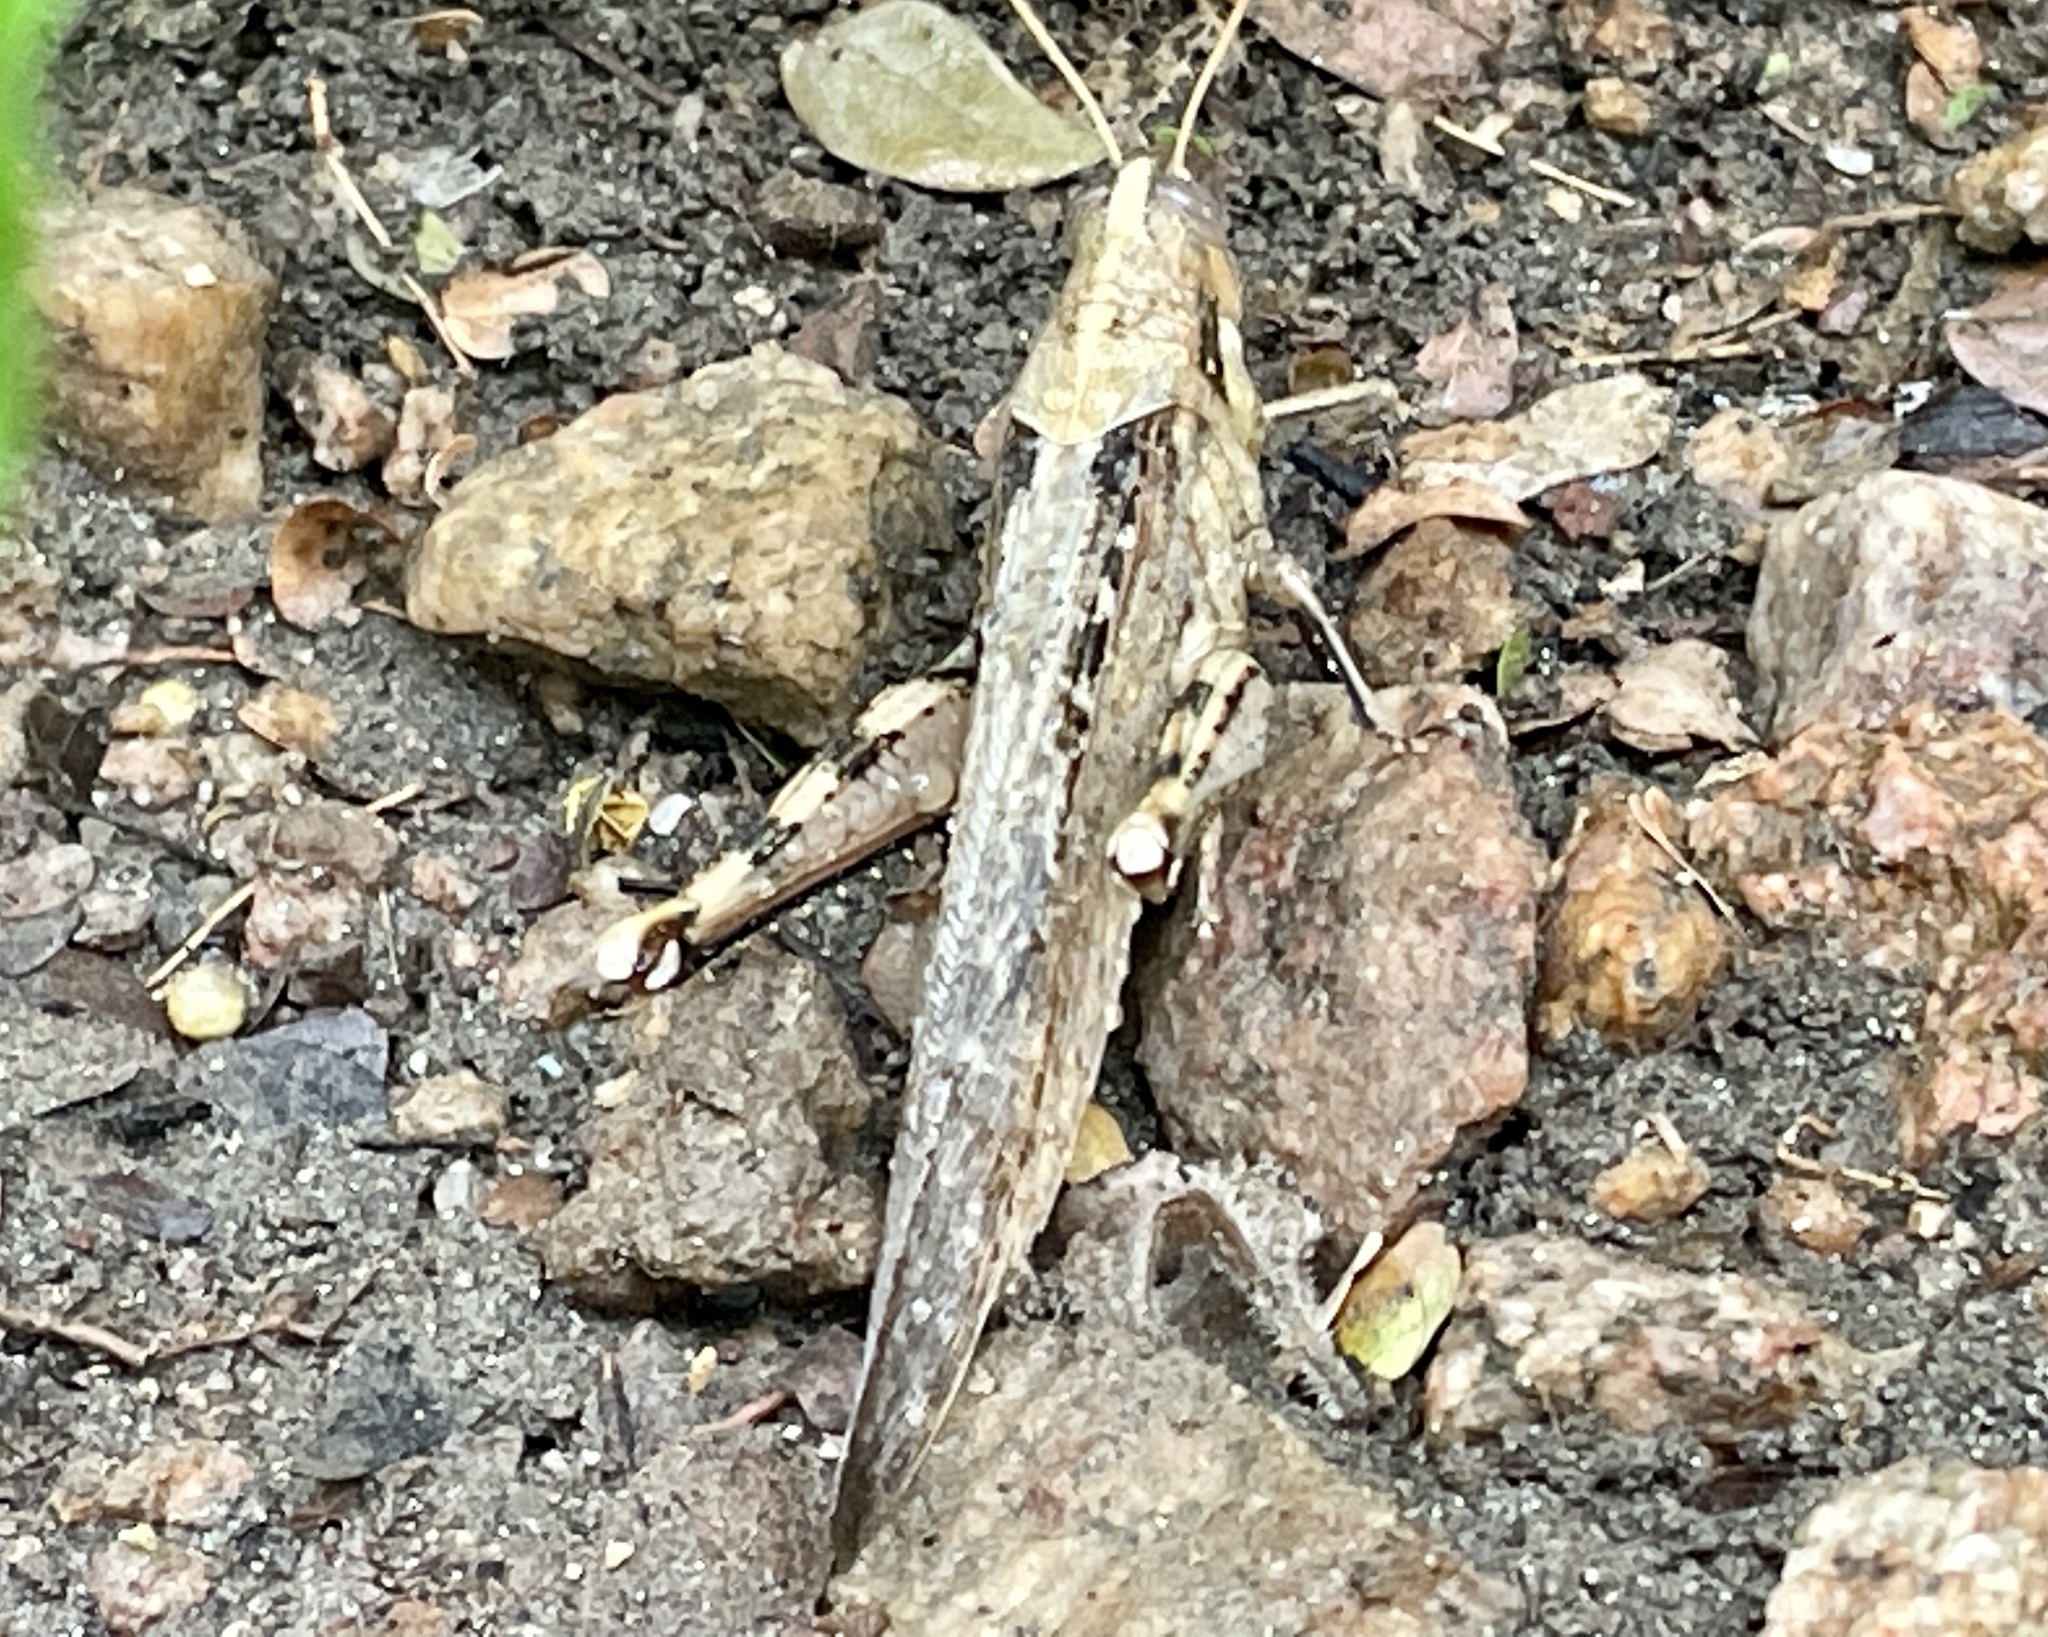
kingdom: Animalia
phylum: Arthropoda
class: Insecta
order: Orthoptera
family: Acrididae
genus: Schistocerca
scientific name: Schistocerca nitens
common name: Vagrant grasshopper
